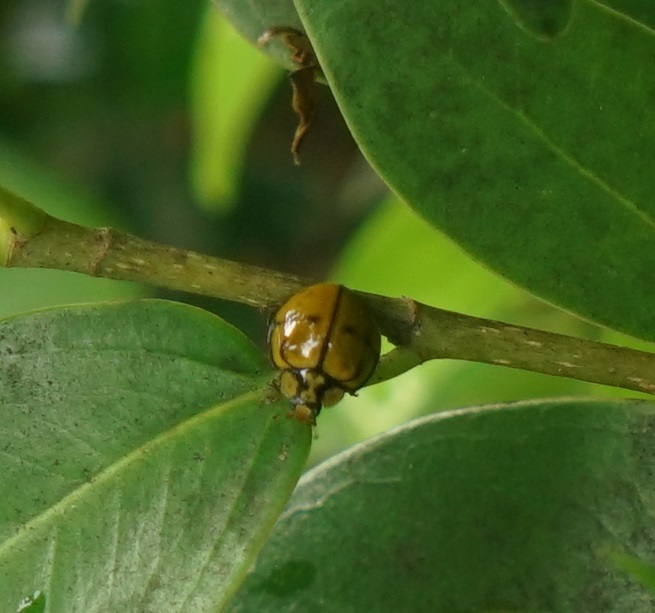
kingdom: Animalia
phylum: Arthropoda
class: Insecta
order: Coleoptera
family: Coccinellidae
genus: Harmonia
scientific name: Harmonia
